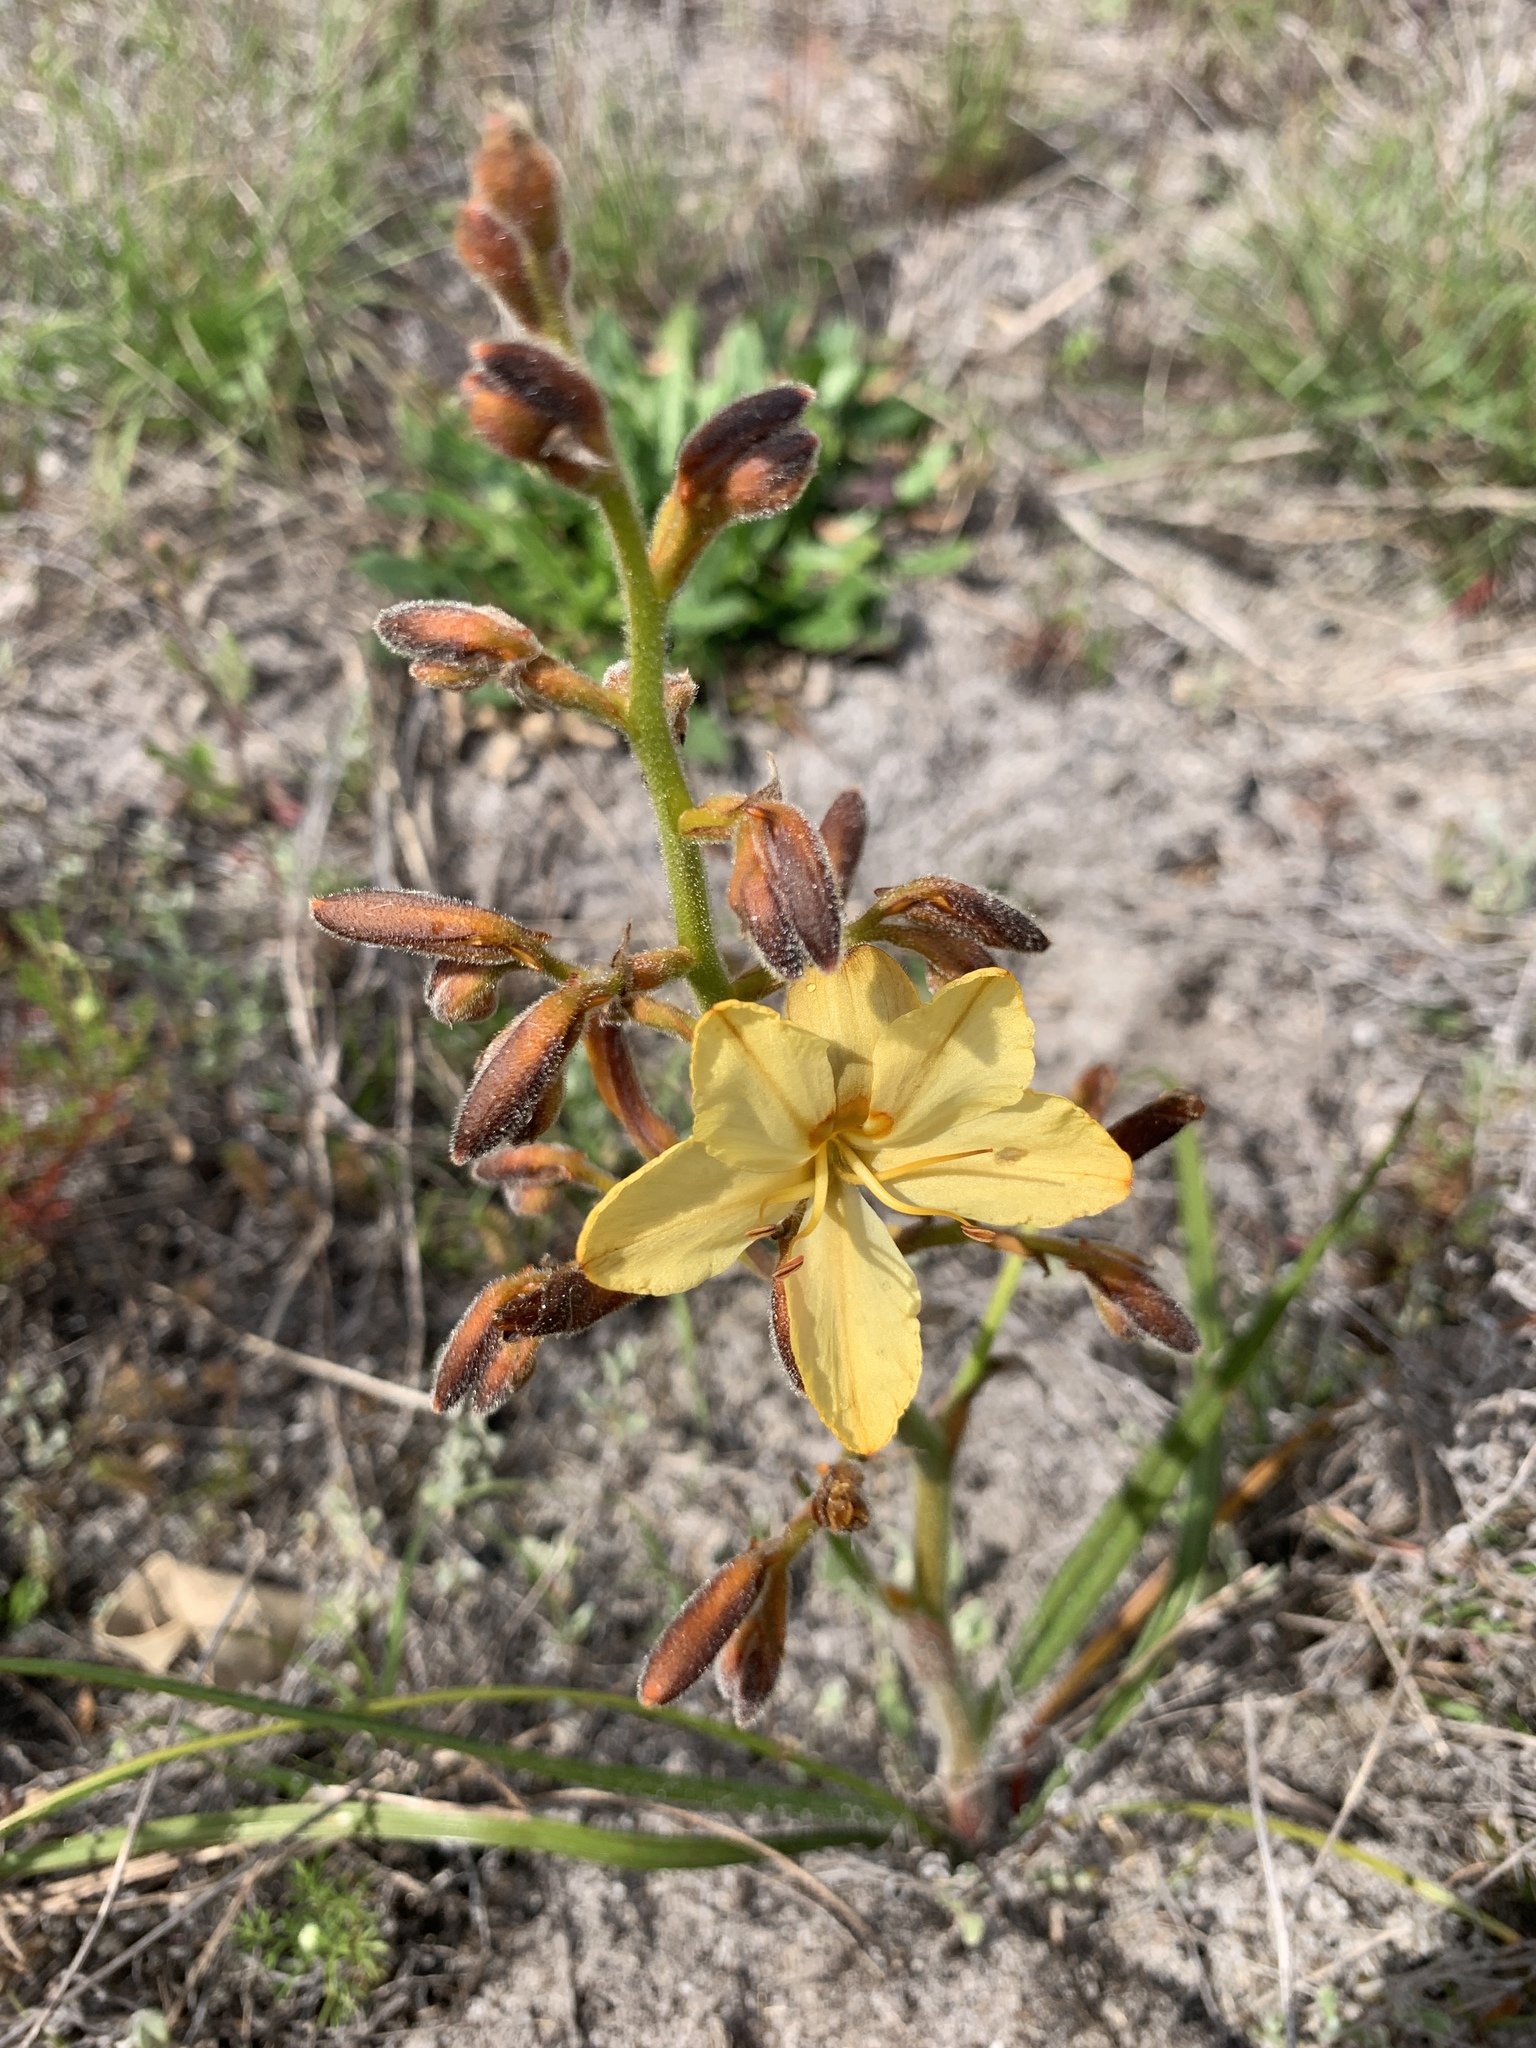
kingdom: Plantae
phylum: Tracheophyta
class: Liliopsida
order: Commelinales
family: Haemodoraceae
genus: Wachendorfia
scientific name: Wachendorfia paniculata
